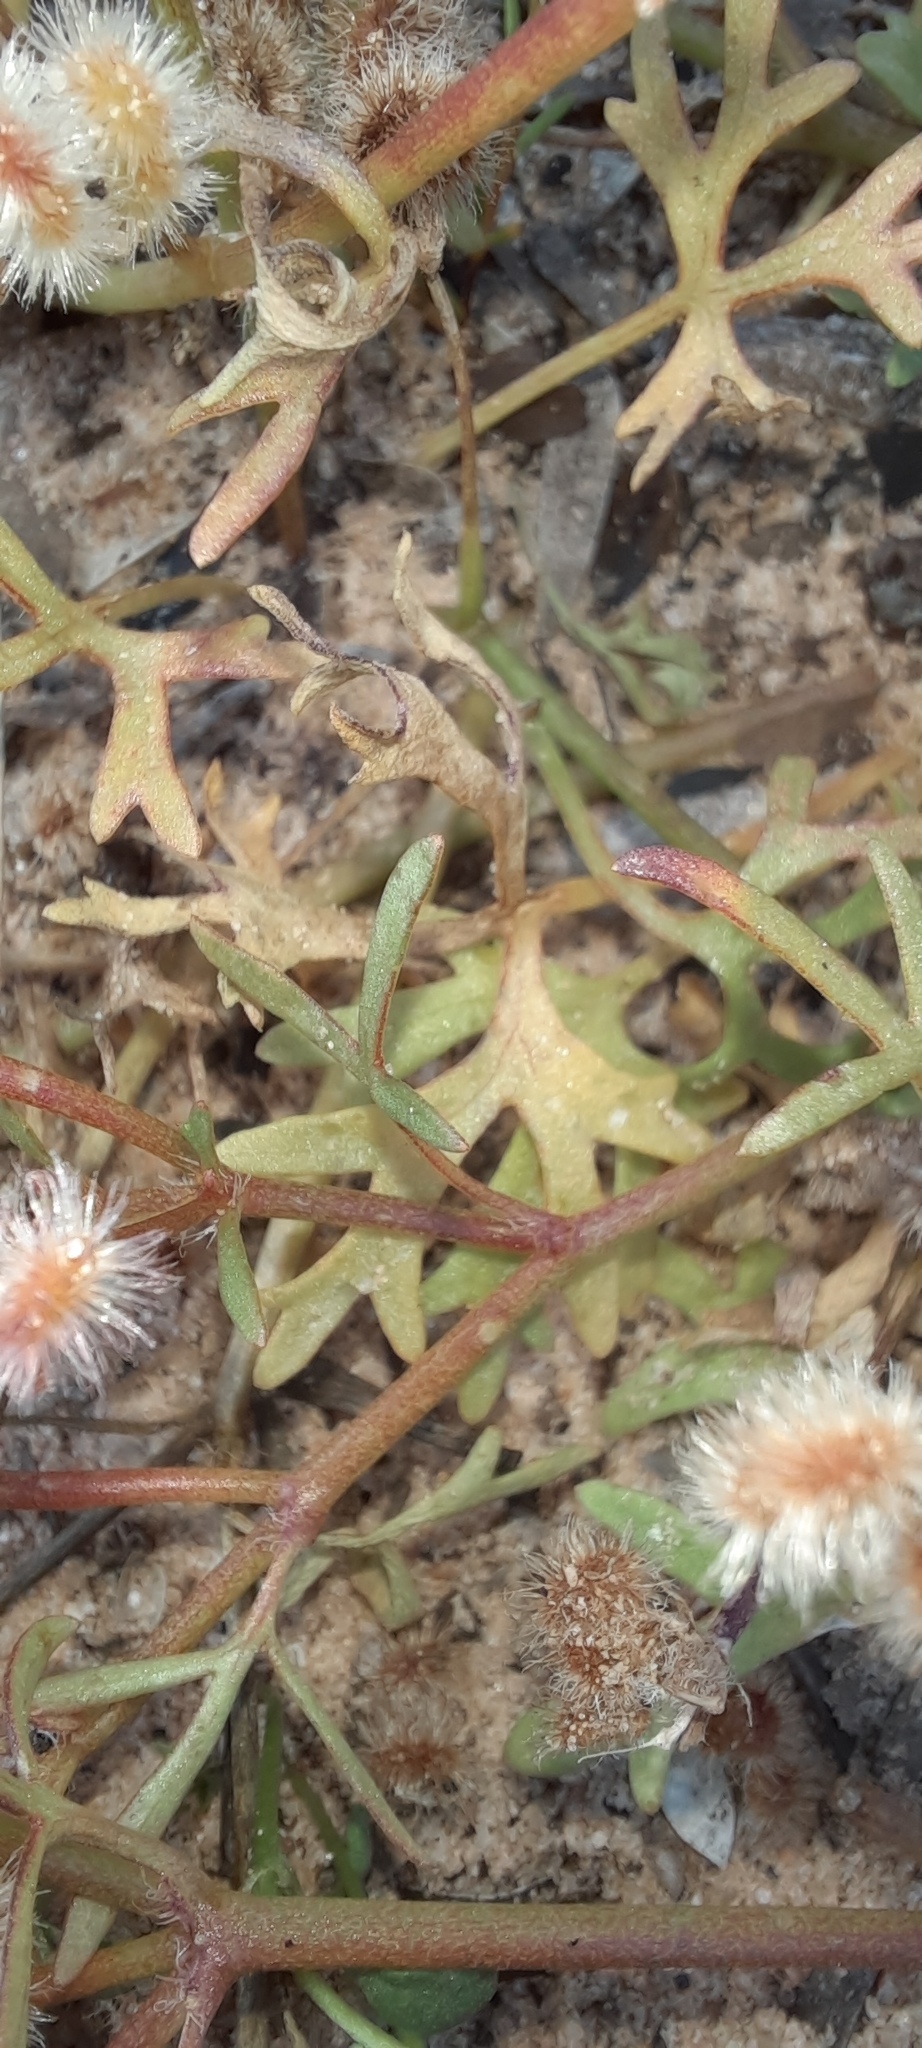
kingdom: Plantae
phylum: Tracheophyta
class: Magnoliopsida
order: Apiales
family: Araliaceae
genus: Trachymene
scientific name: Trachymene cyanopetala
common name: Purple trachymene
